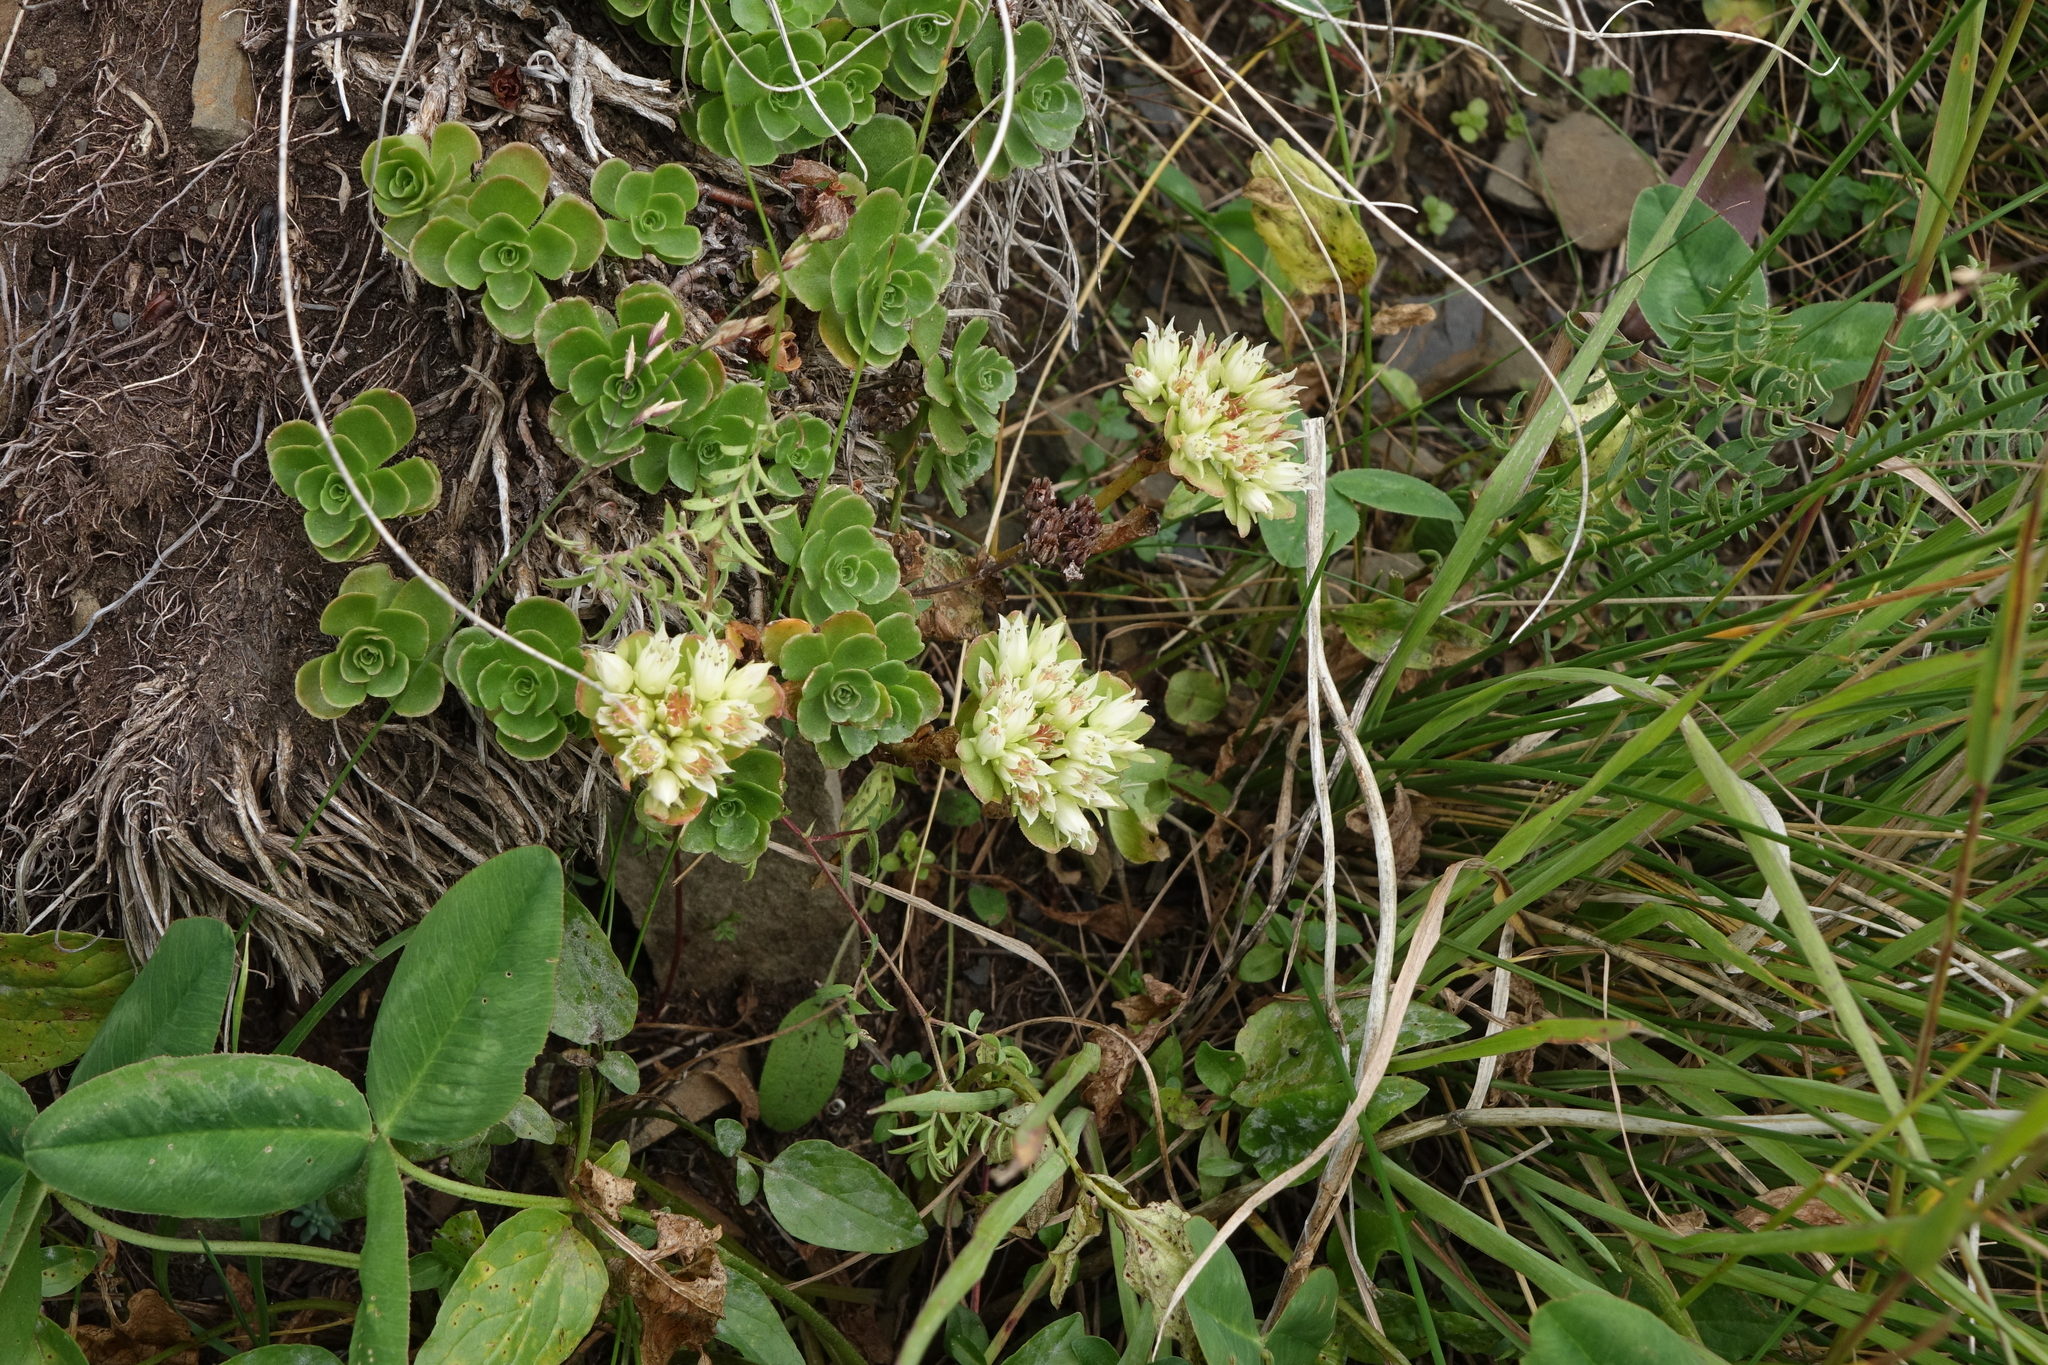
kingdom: Plantae
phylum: Tracheophyta
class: Magnoliopsida
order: Saxifragales
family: Crassulaceae
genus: Phedimus
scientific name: Phedimus spurius
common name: Caucasian stonecrop
